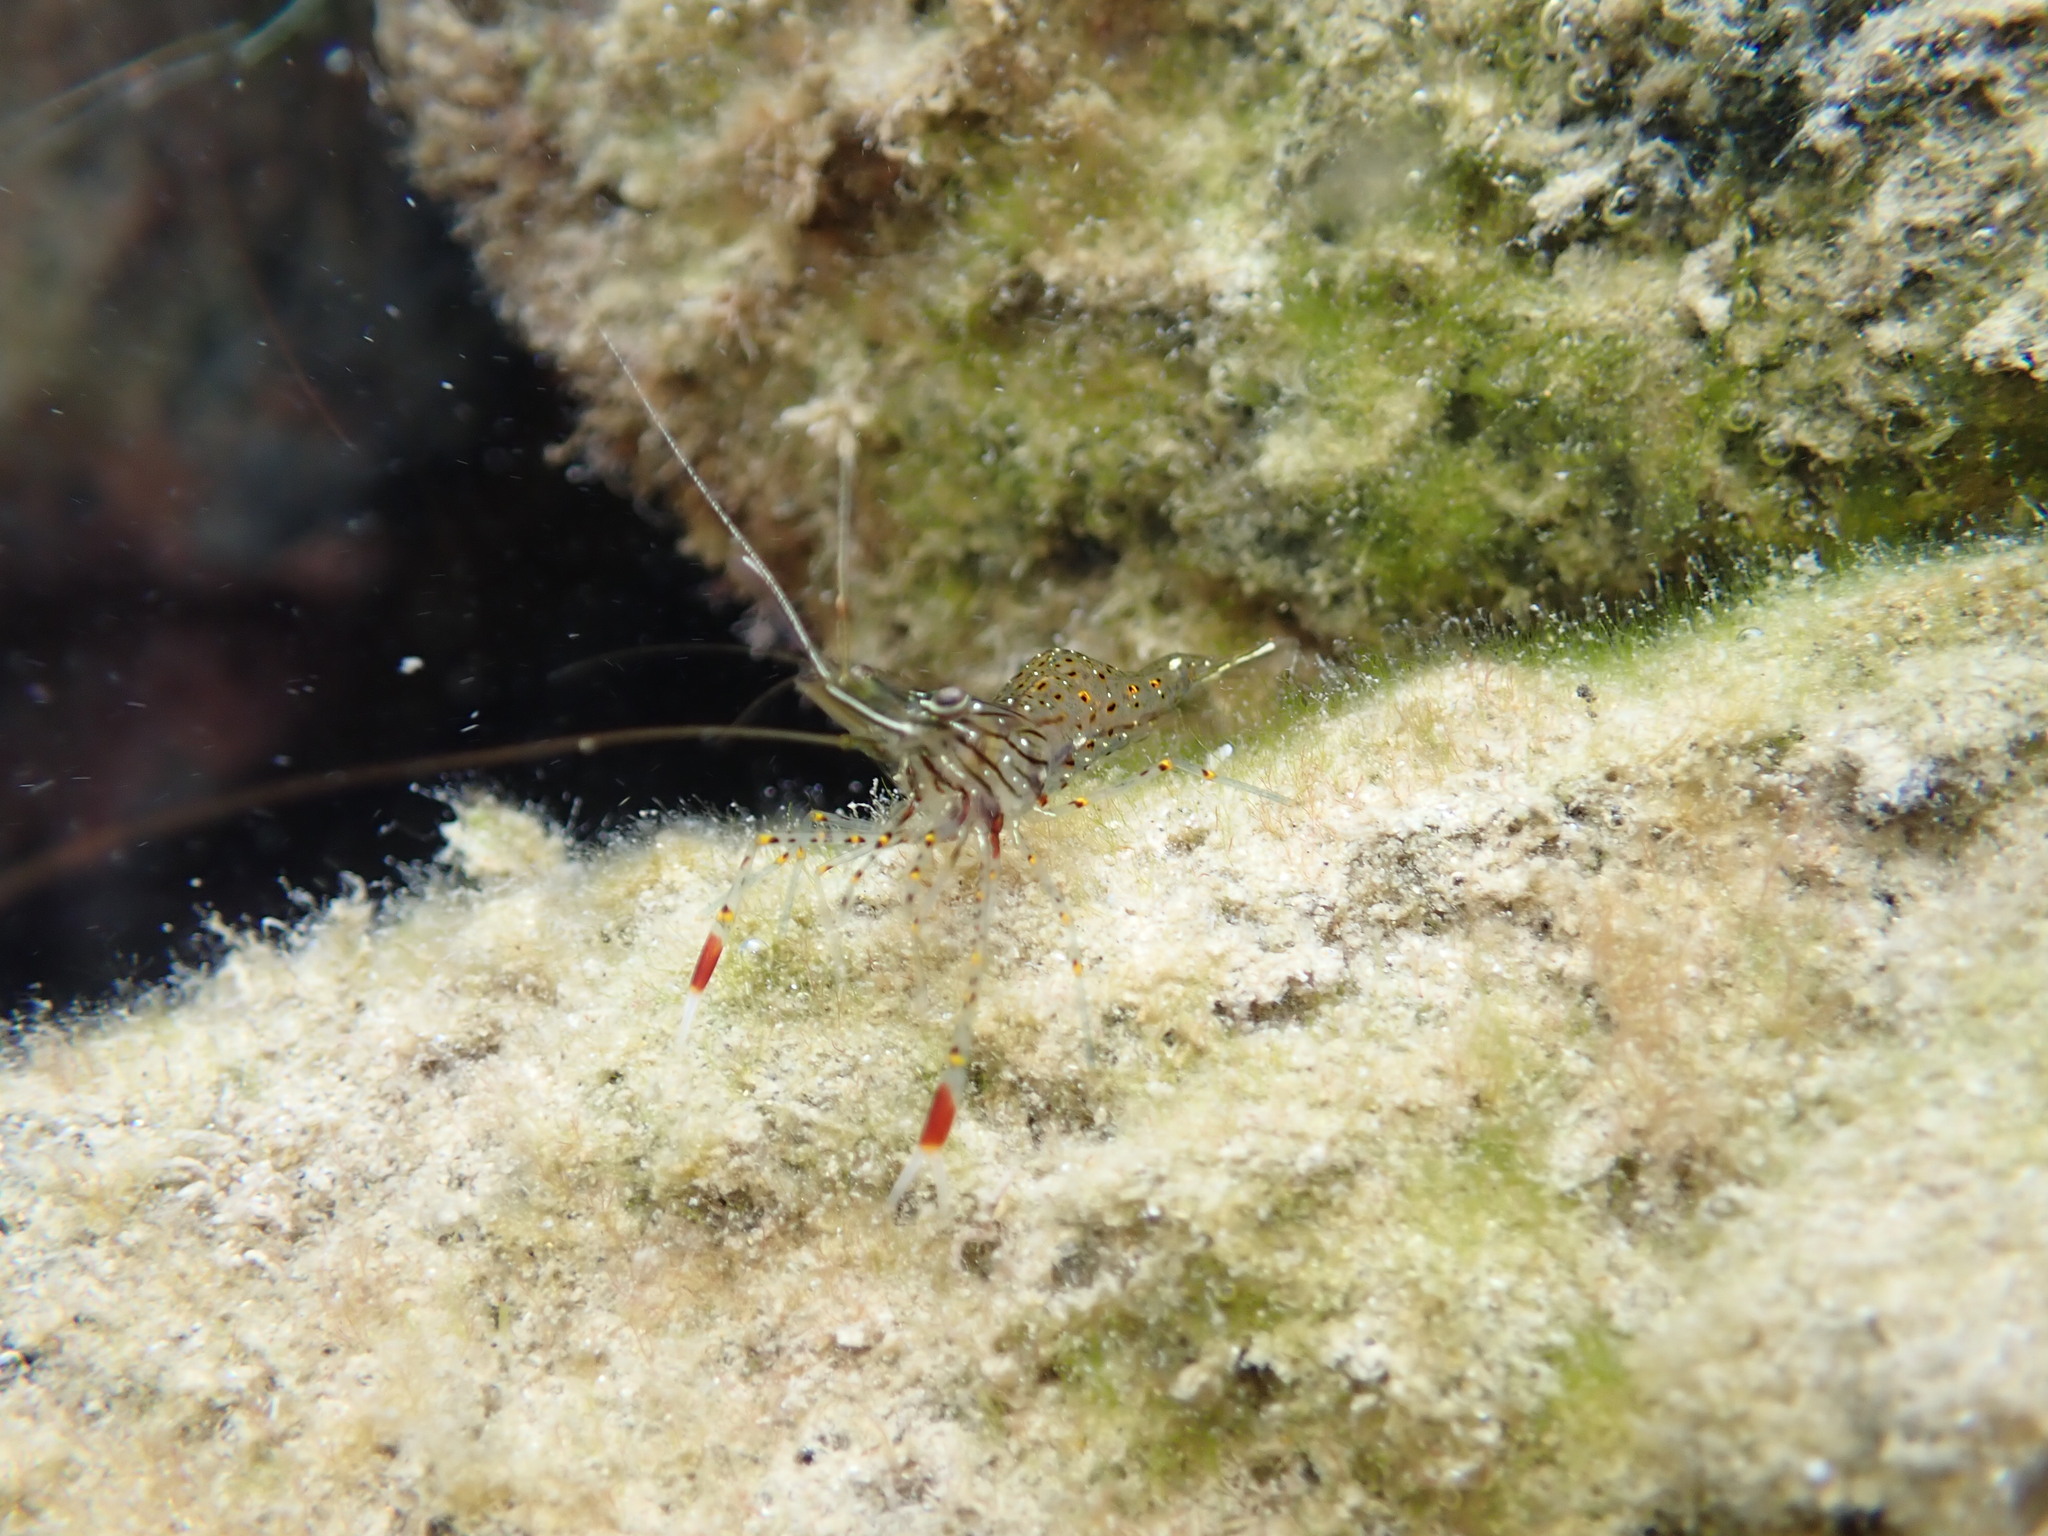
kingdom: Animalia
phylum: Arthropoda
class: Malacostraca
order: Decapoda
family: Palaemonidae
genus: Palaemon
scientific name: Palaemon serenus
